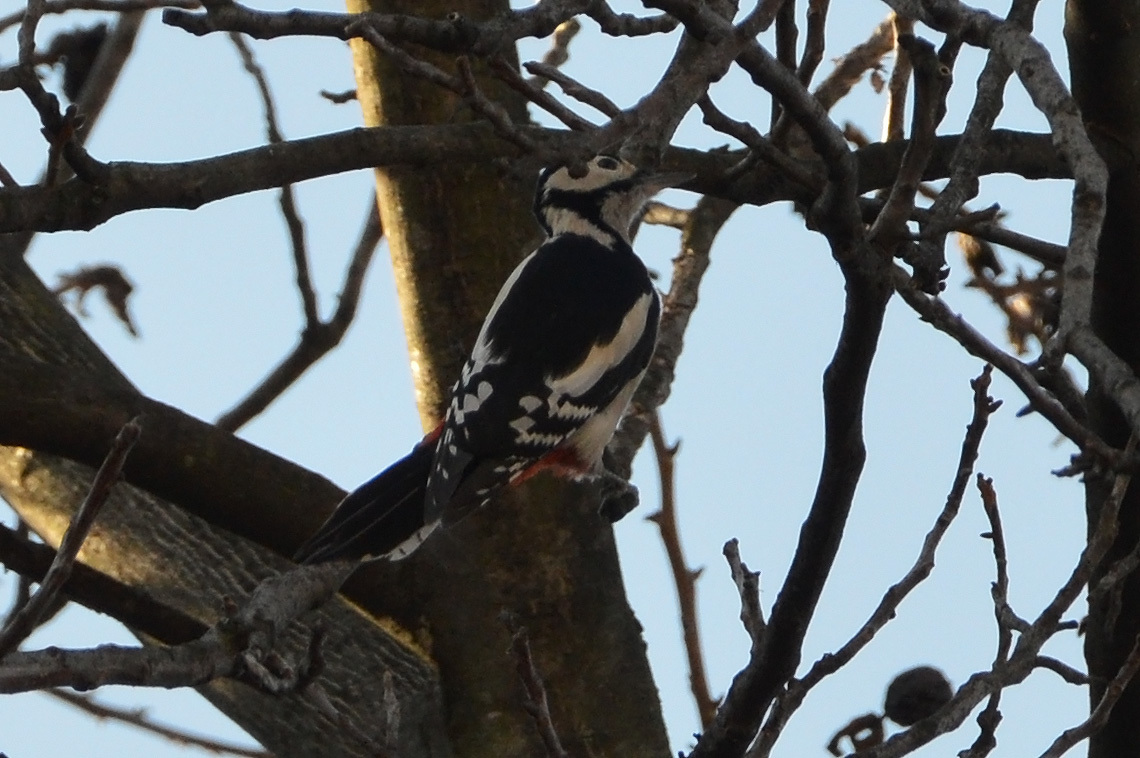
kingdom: Animalia
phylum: Chordata
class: Aves
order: Piciformes
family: Picidae
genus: Dendrocopos
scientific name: Dendrocopos major
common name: Great spotted woodpecker
